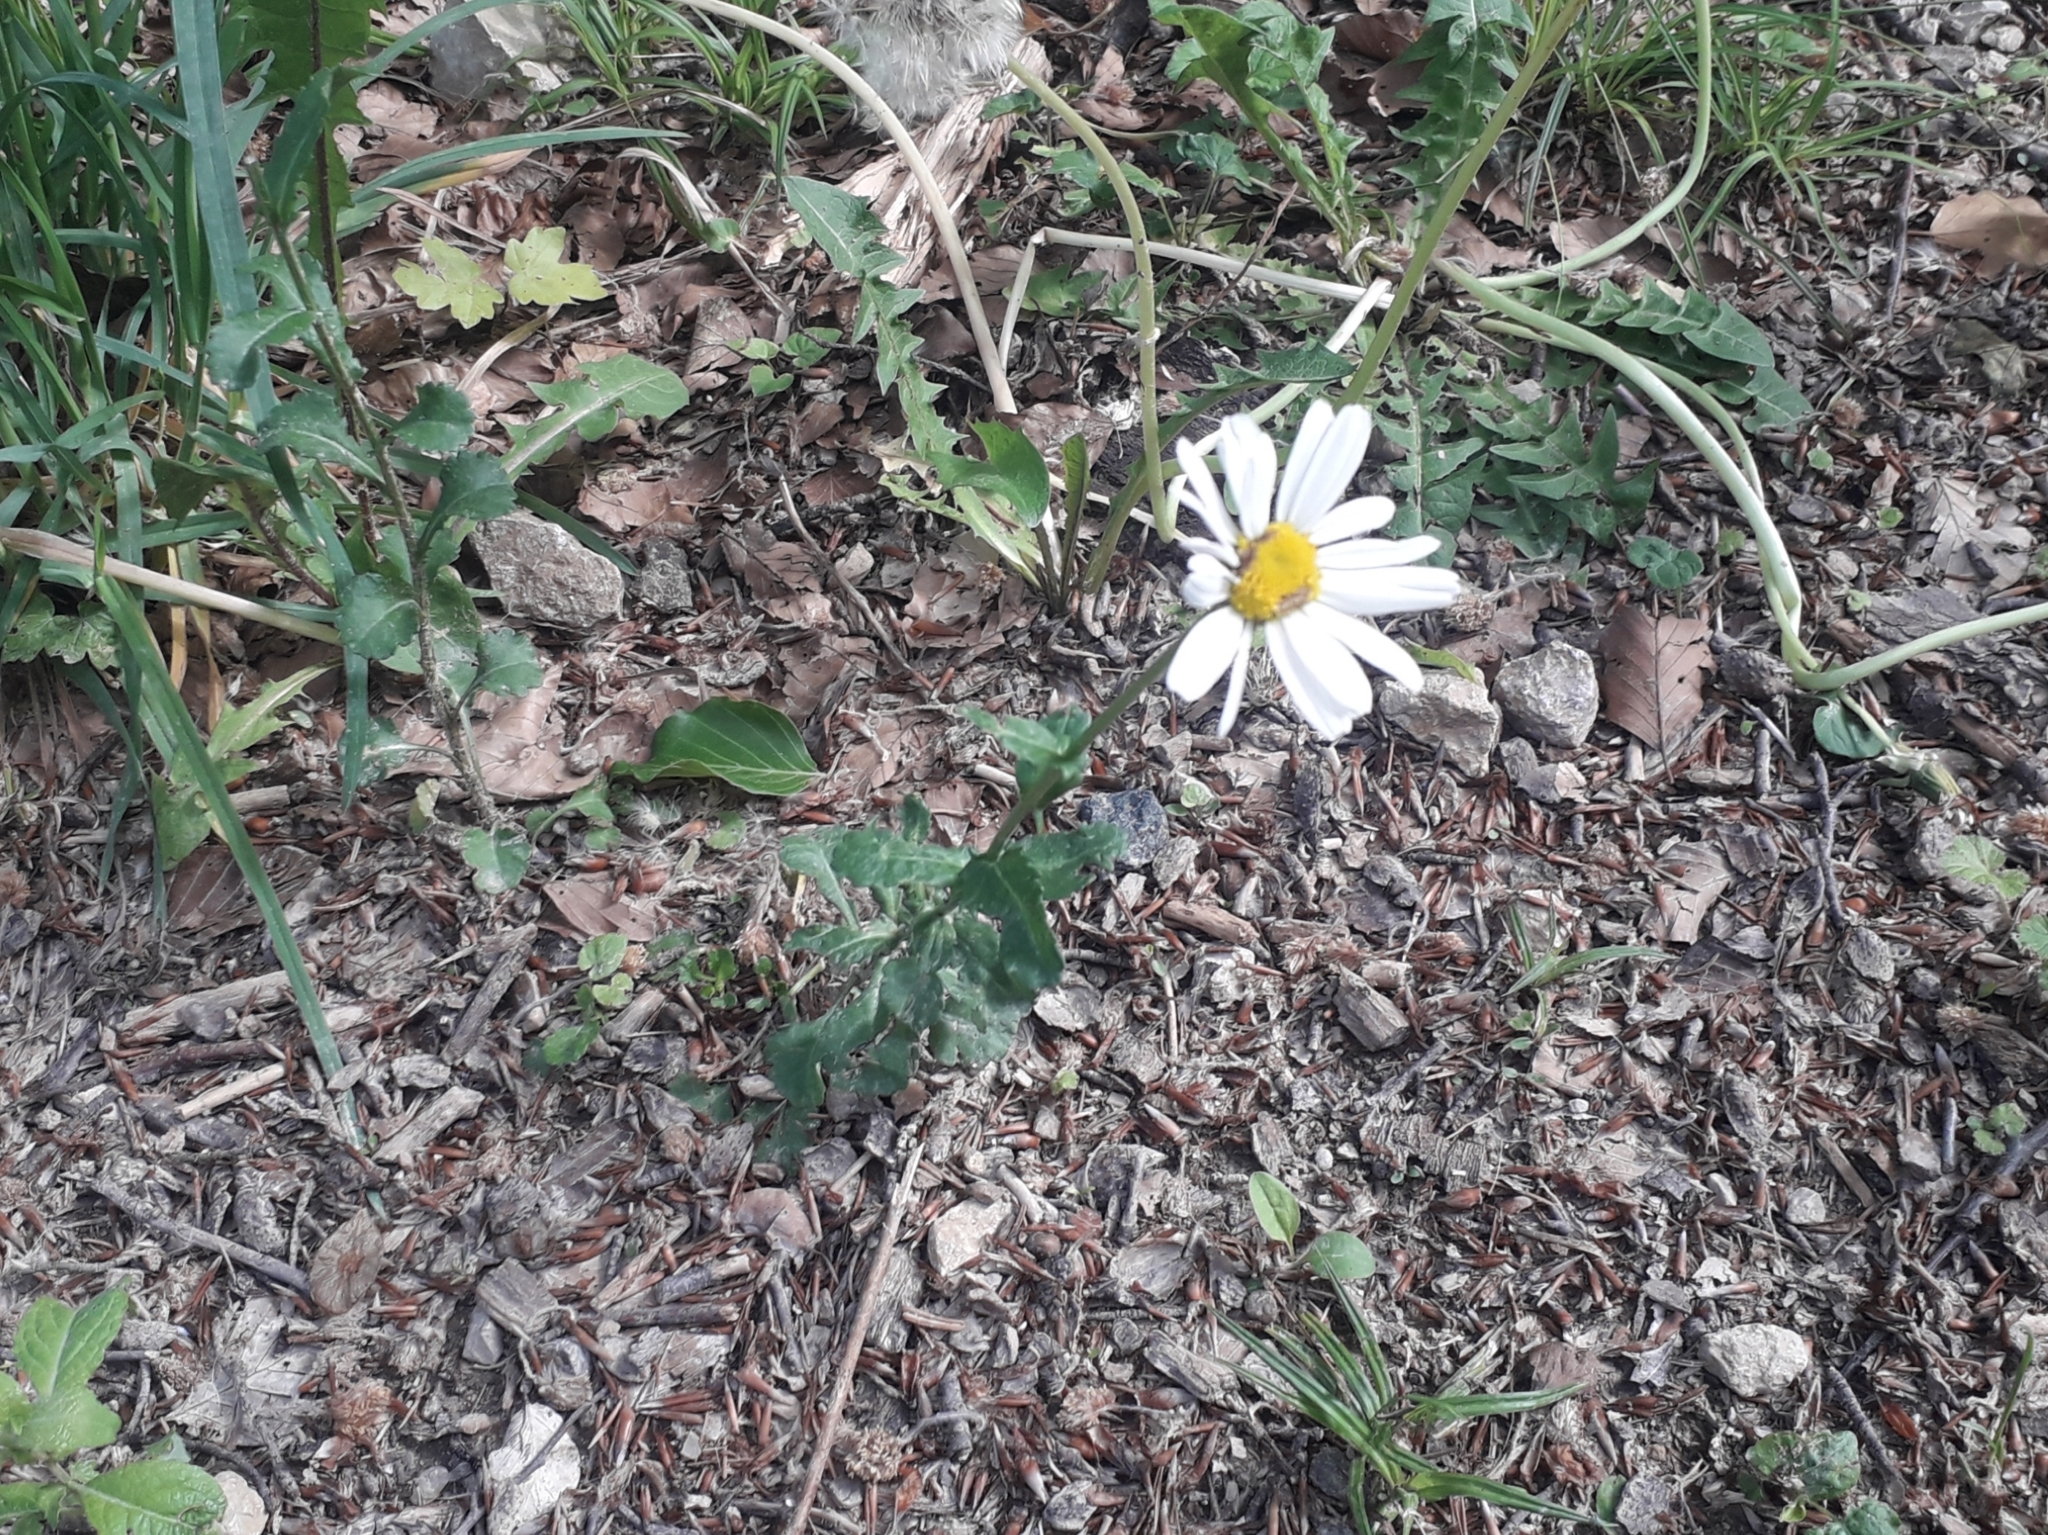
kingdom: Plantae
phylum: Tracheophyta
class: Magnoliopsida
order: Asterales
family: Asteraceae
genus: Leucanthemum
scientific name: Leucanthemum vulgare
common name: Oxeye daisy
